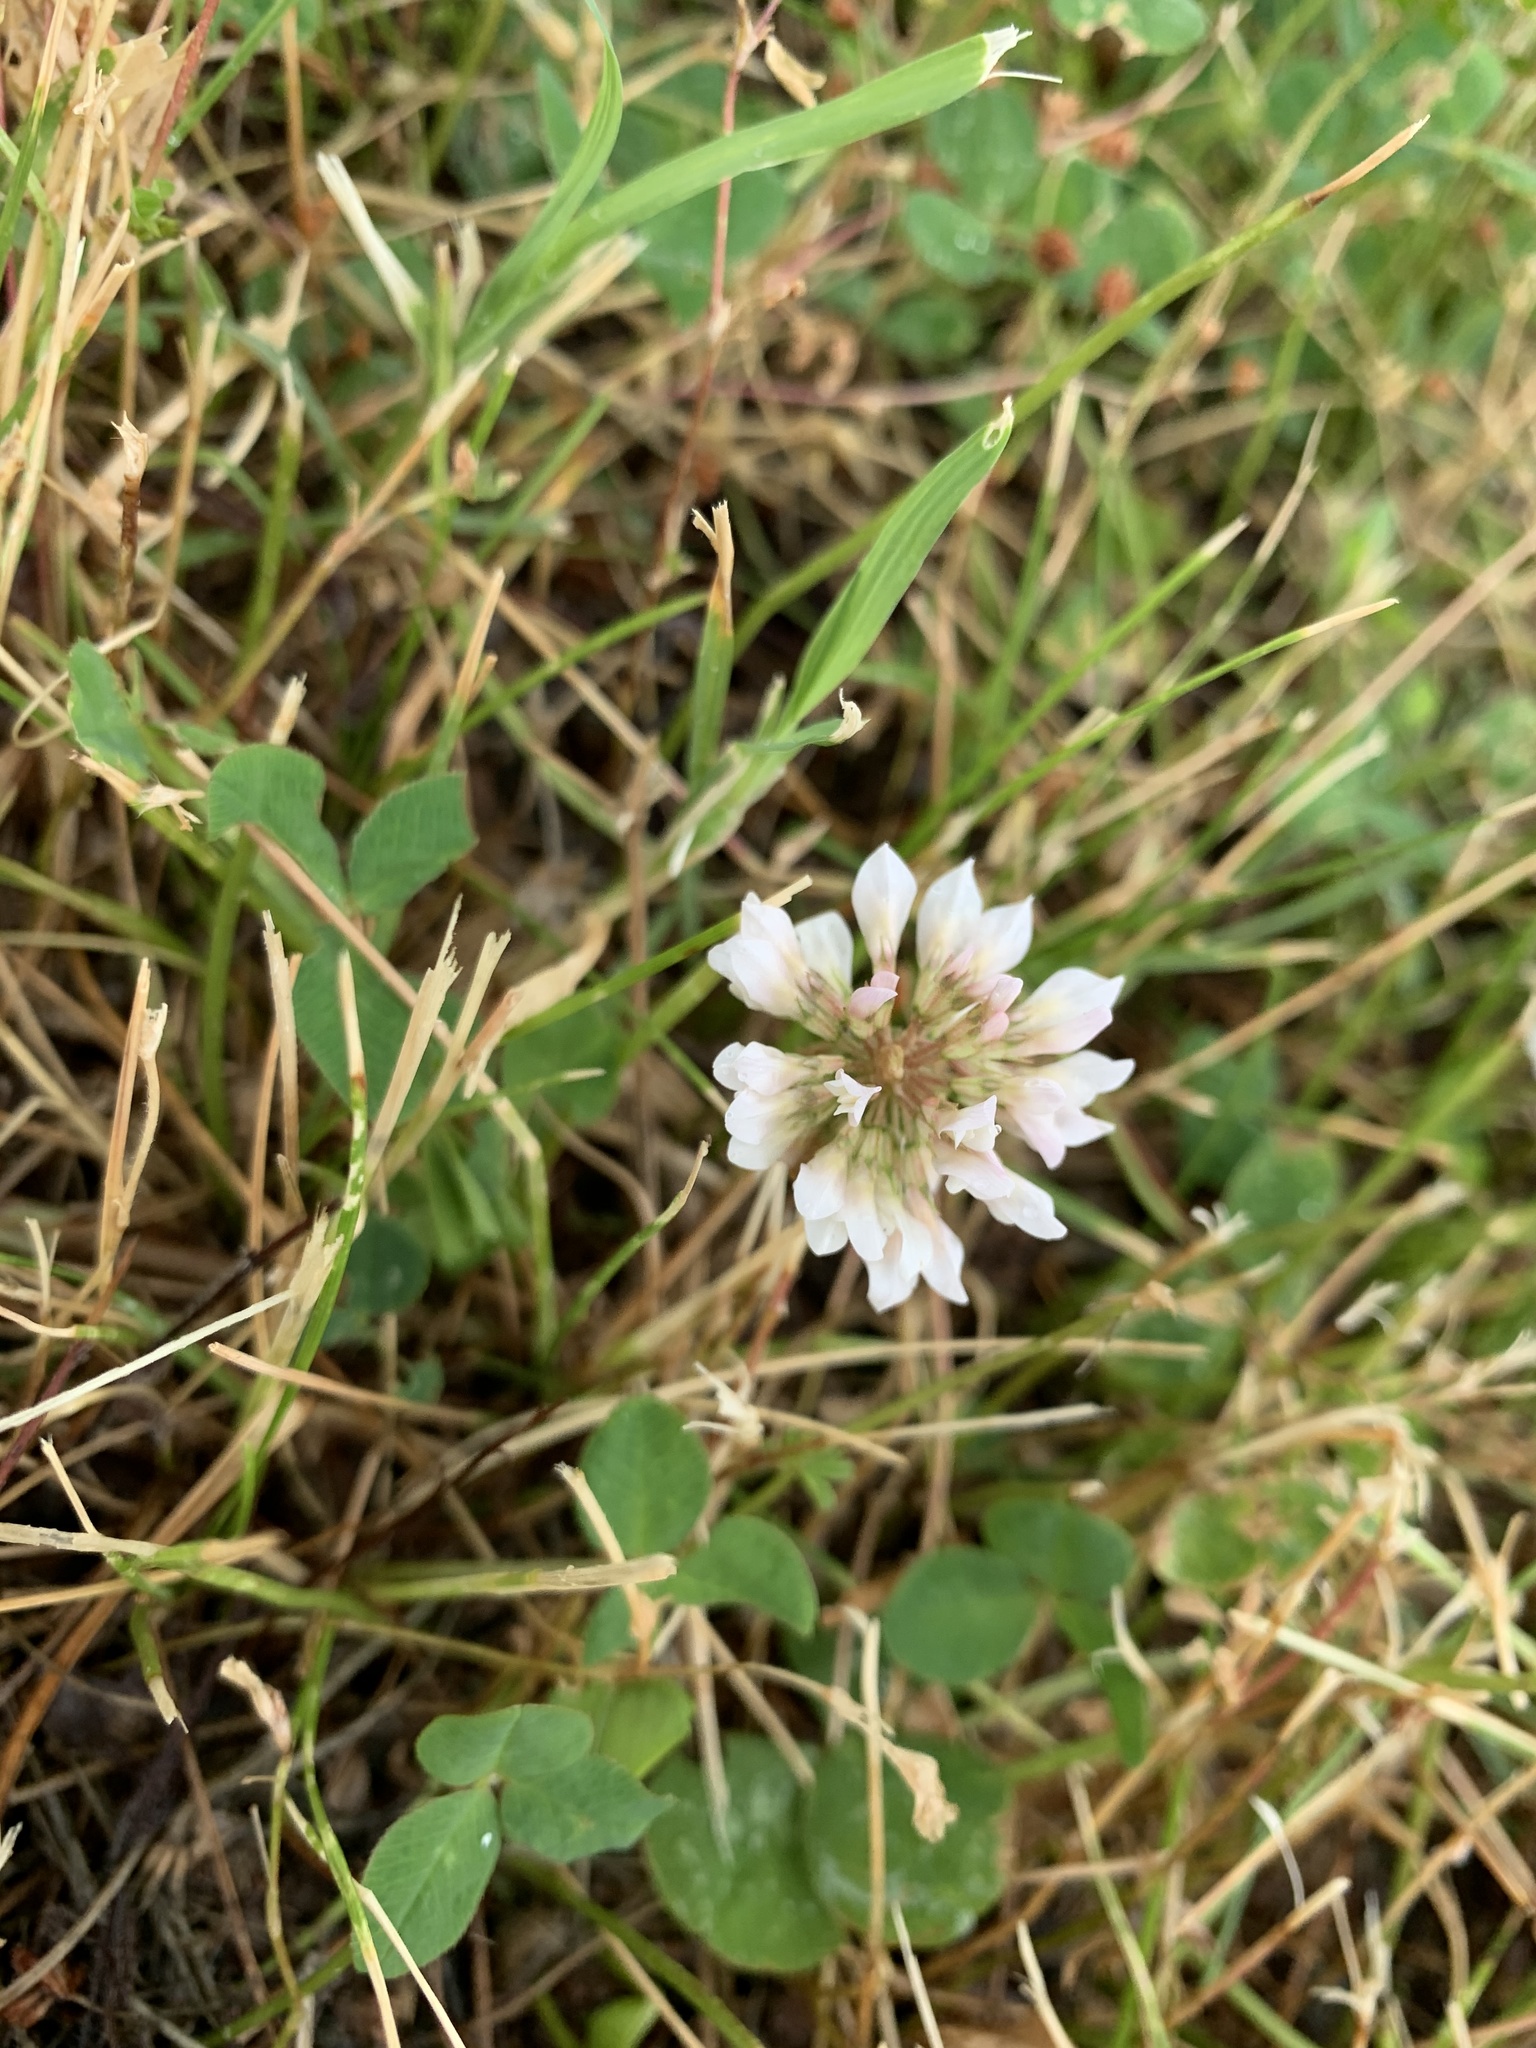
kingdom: Plantae
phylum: Tracheophyta
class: Magnoliopsida
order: Fabales
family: Fabaceae
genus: Trifolium
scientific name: Trifolium repens
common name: White clover
